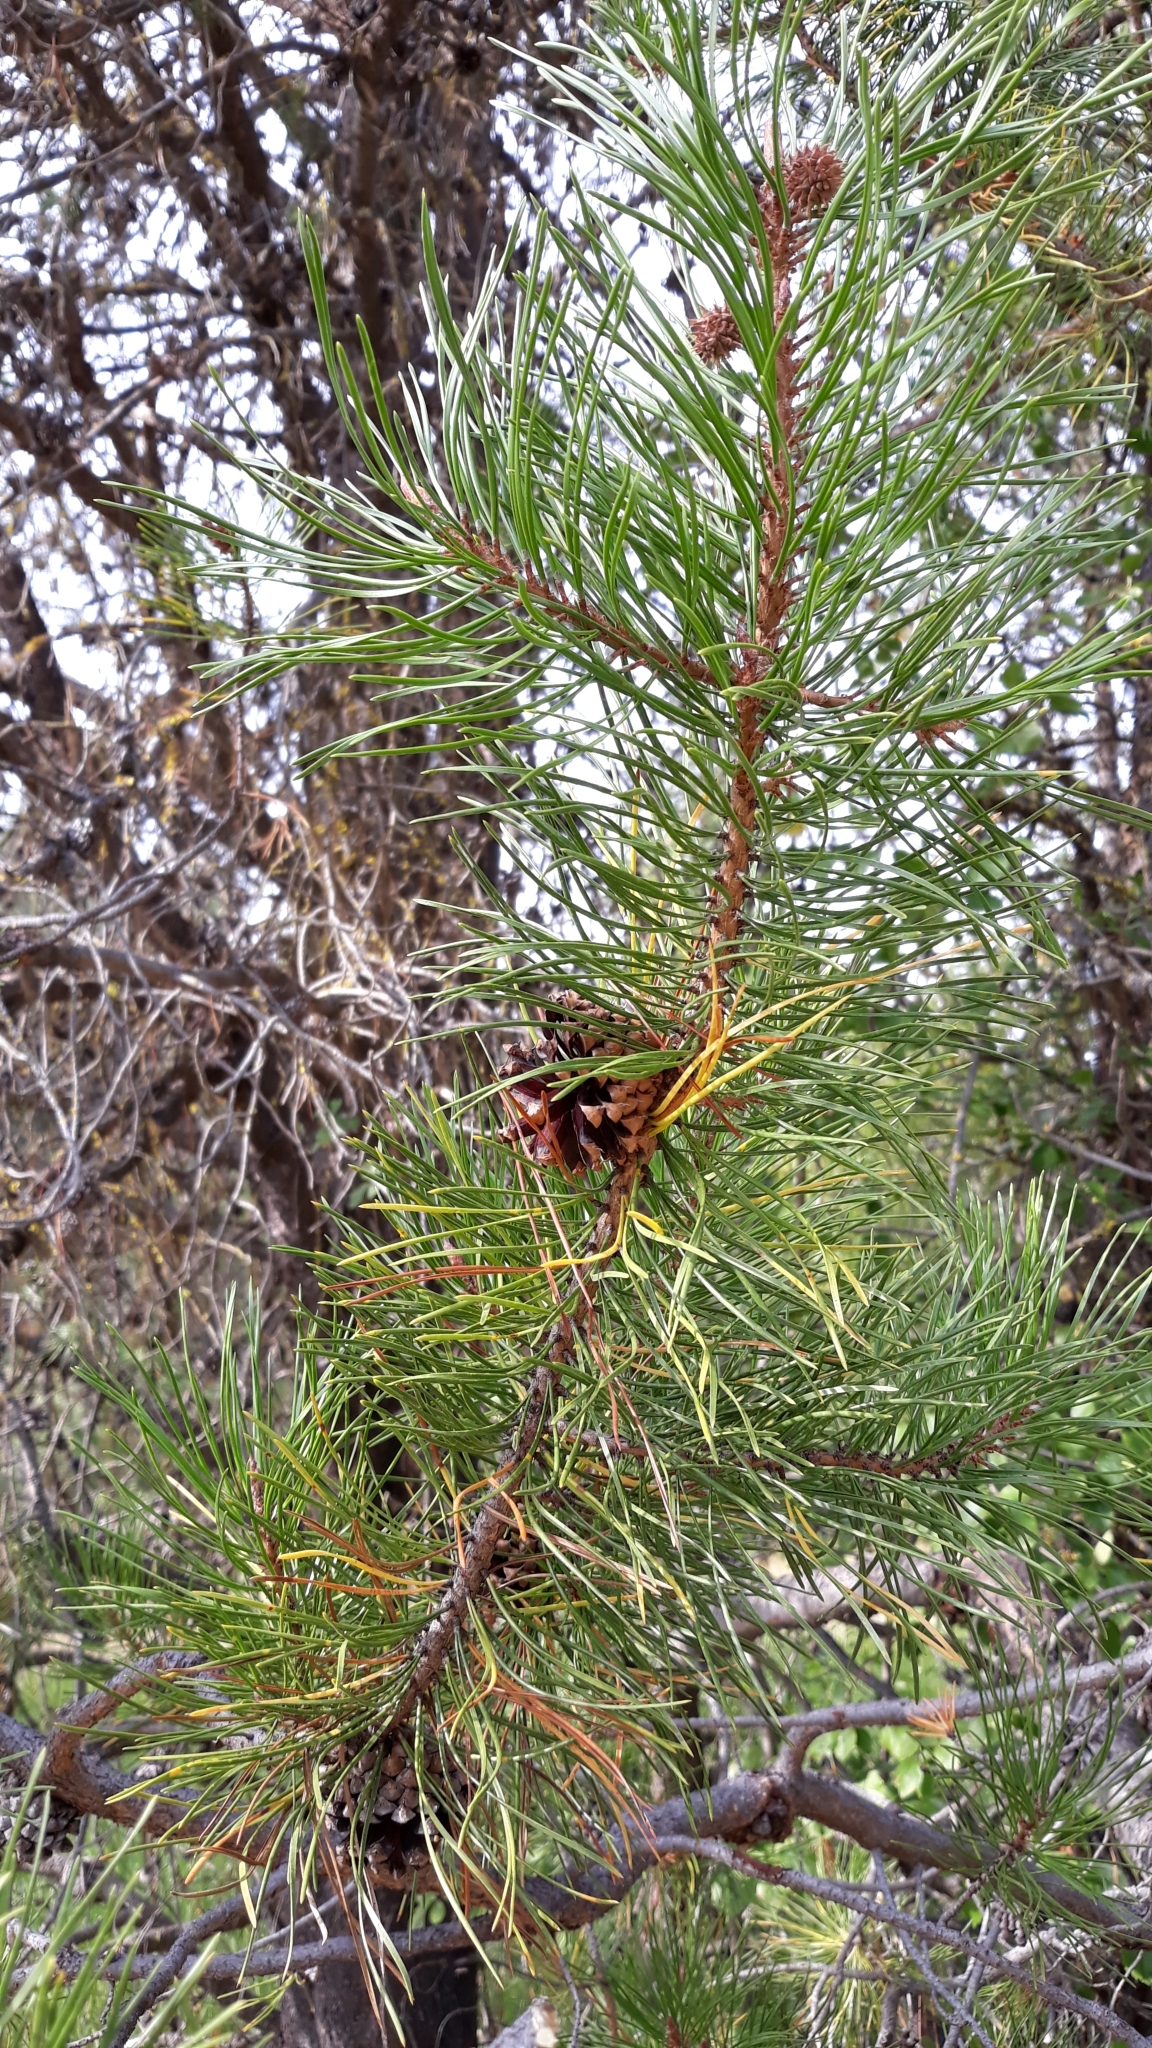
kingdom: Plantae
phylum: Tracheophyta
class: Pinopsida
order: Pinales
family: Pinaceae
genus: Pinus
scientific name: Pinus contorta
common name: Lodgepole pine
